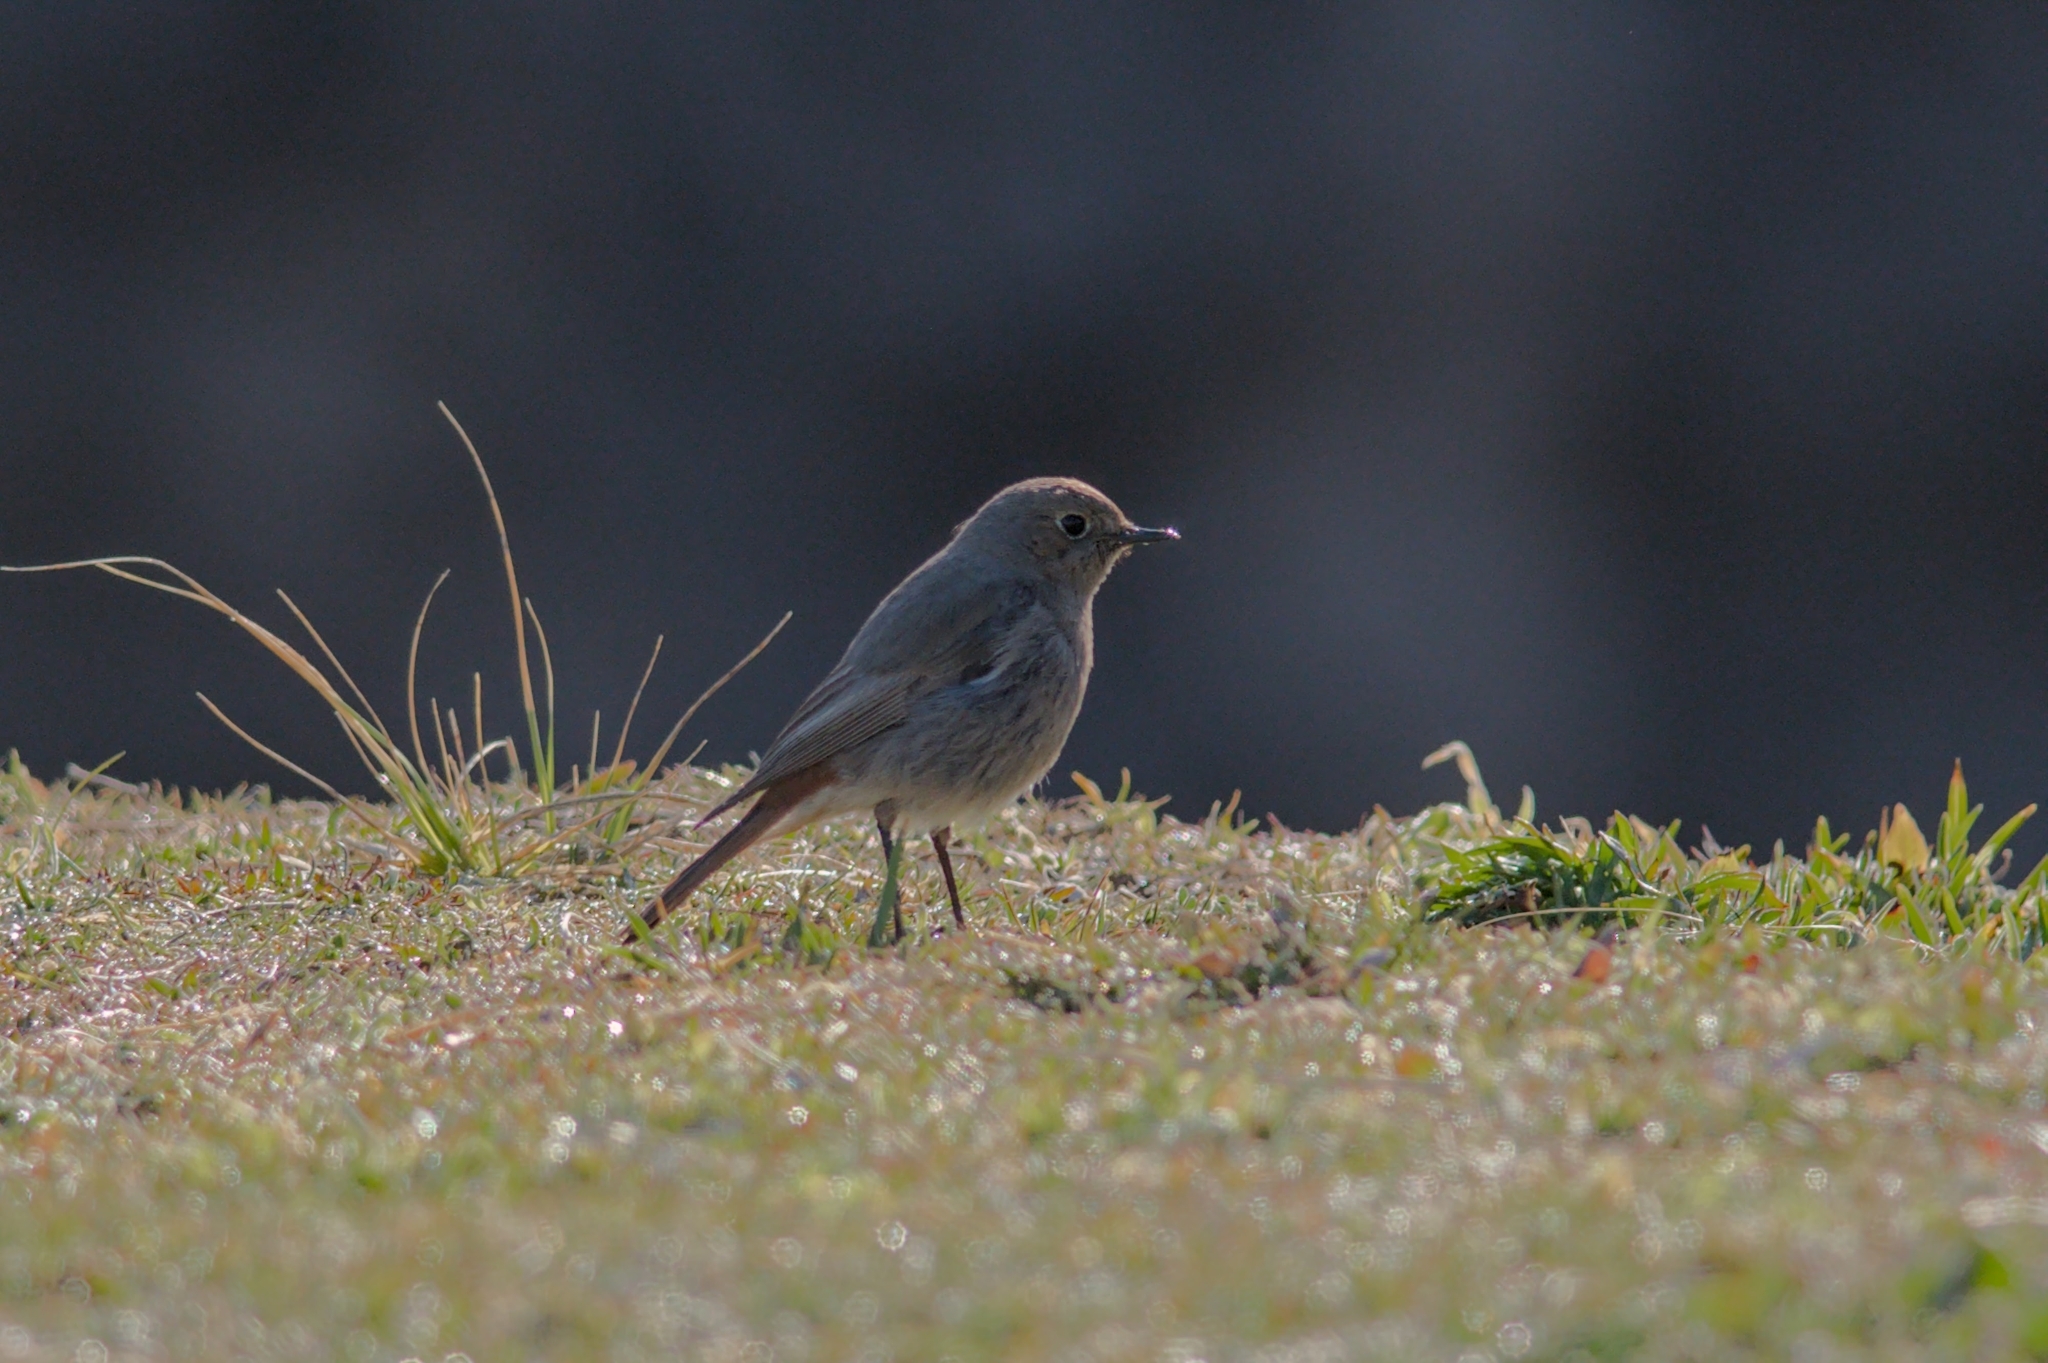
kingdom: Animalia
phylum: Chordata
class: Aves
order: Passeriformes
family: Muscicapidae
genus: Phoenicurus
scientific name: Phoenicurus ochruros
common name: Black redstart
